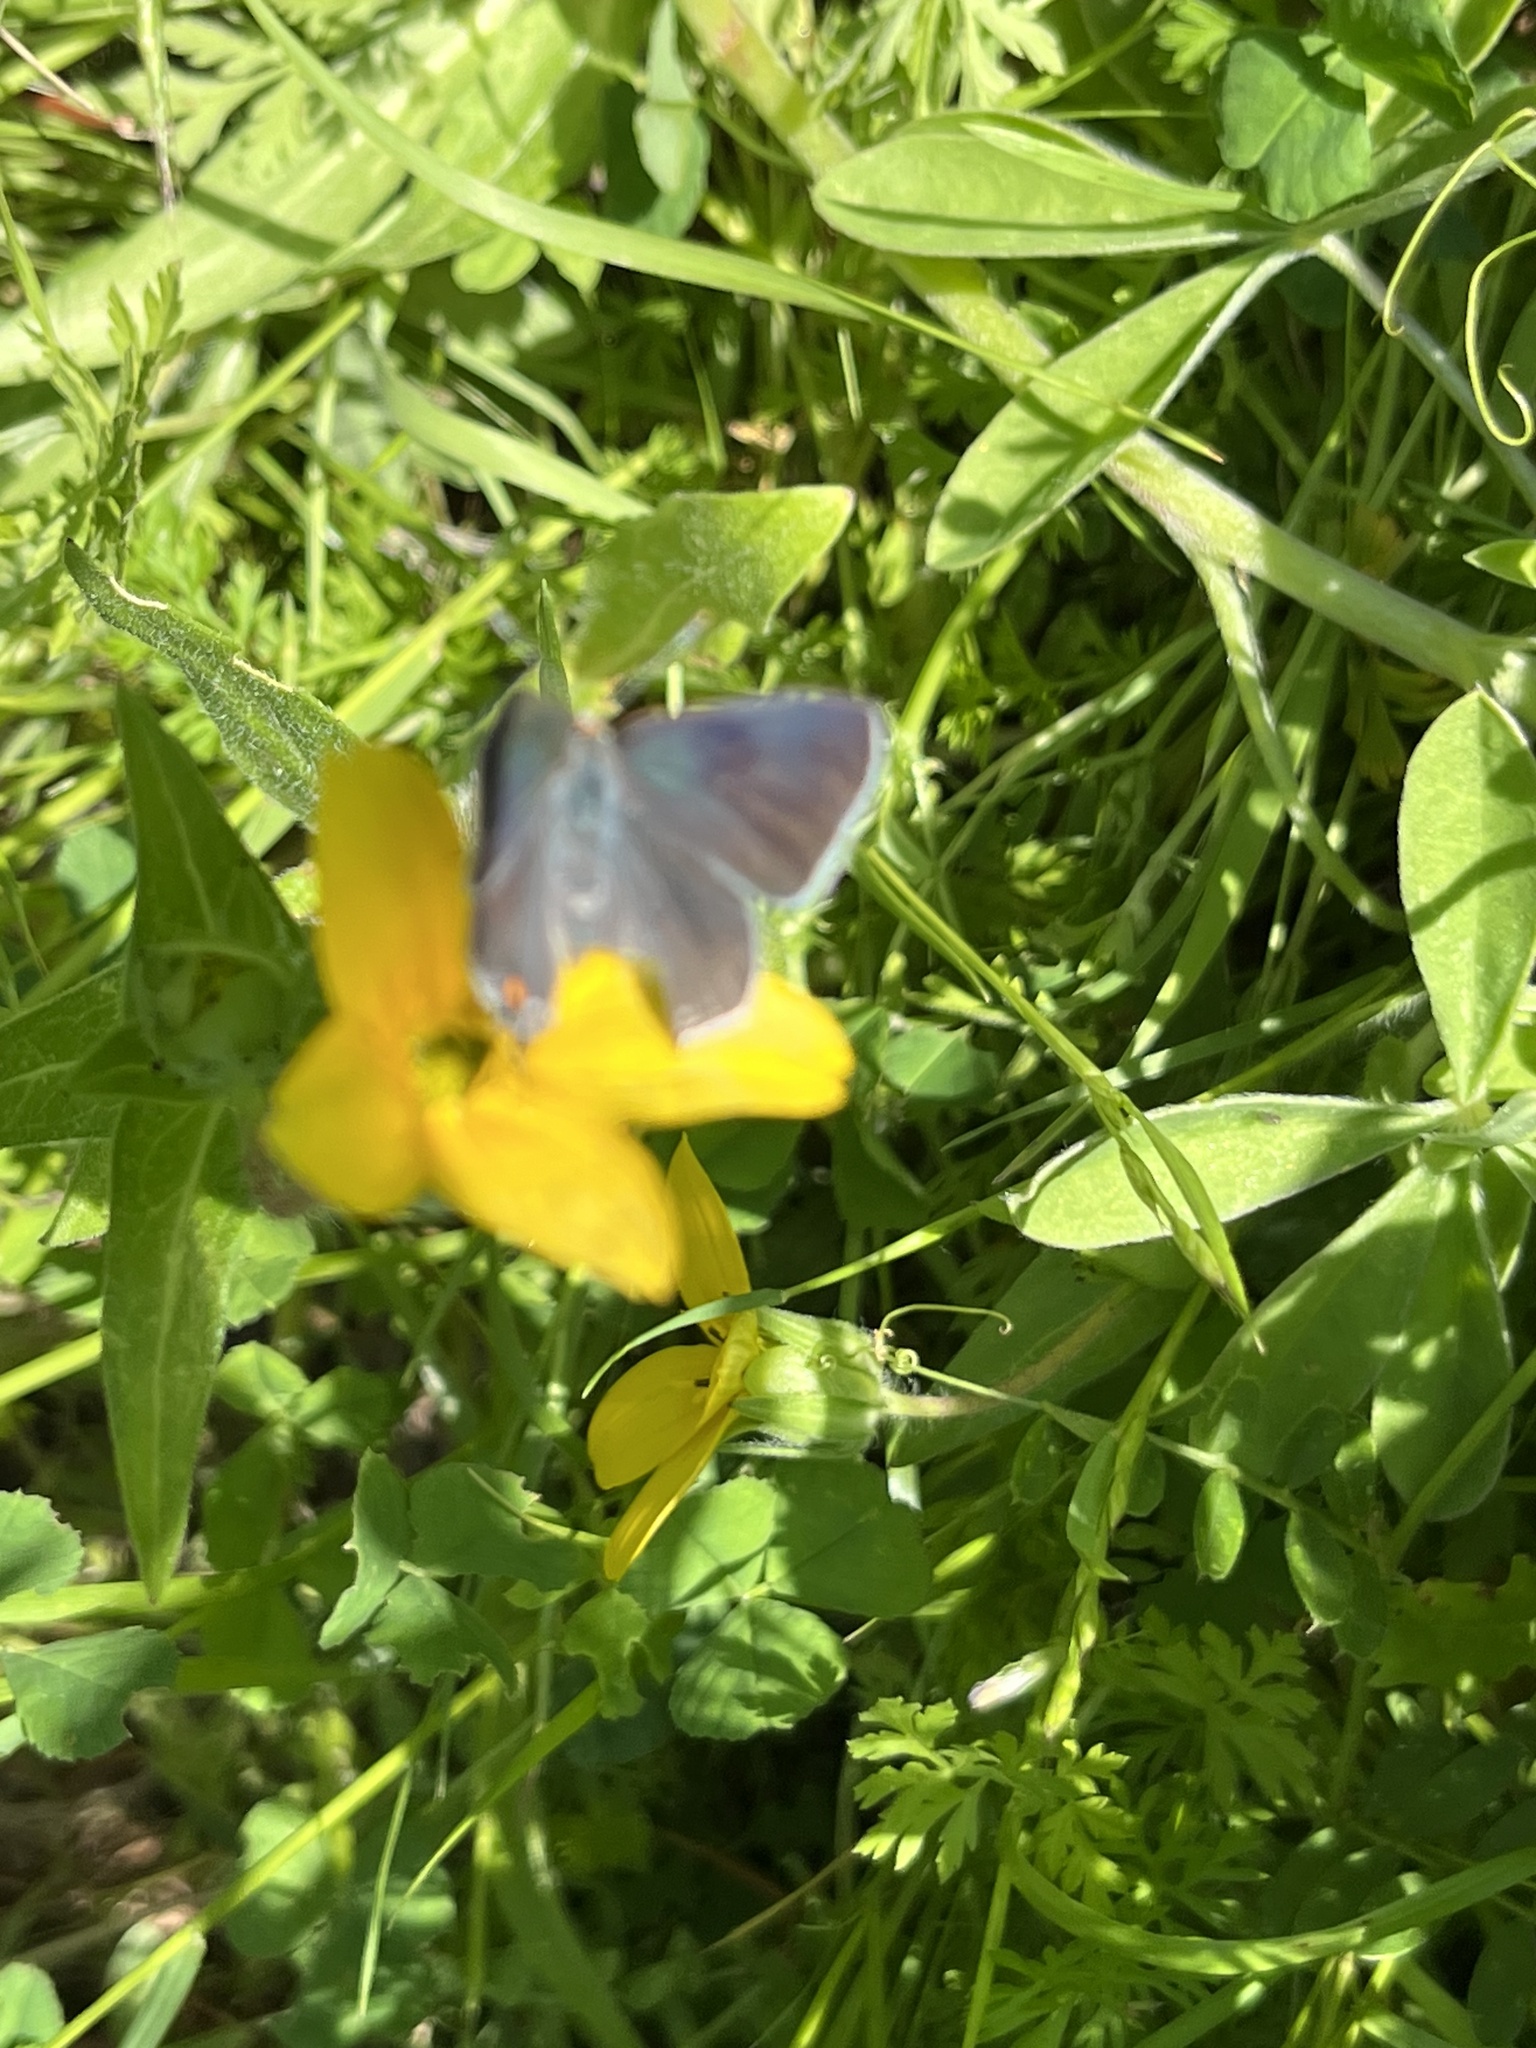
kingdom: Animalia
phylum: Arthropoda
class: Insecta
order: Lepidoptera
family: Lycaenidae
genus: Strymon
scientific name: Strymon melinus
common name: Gray hairstreak
